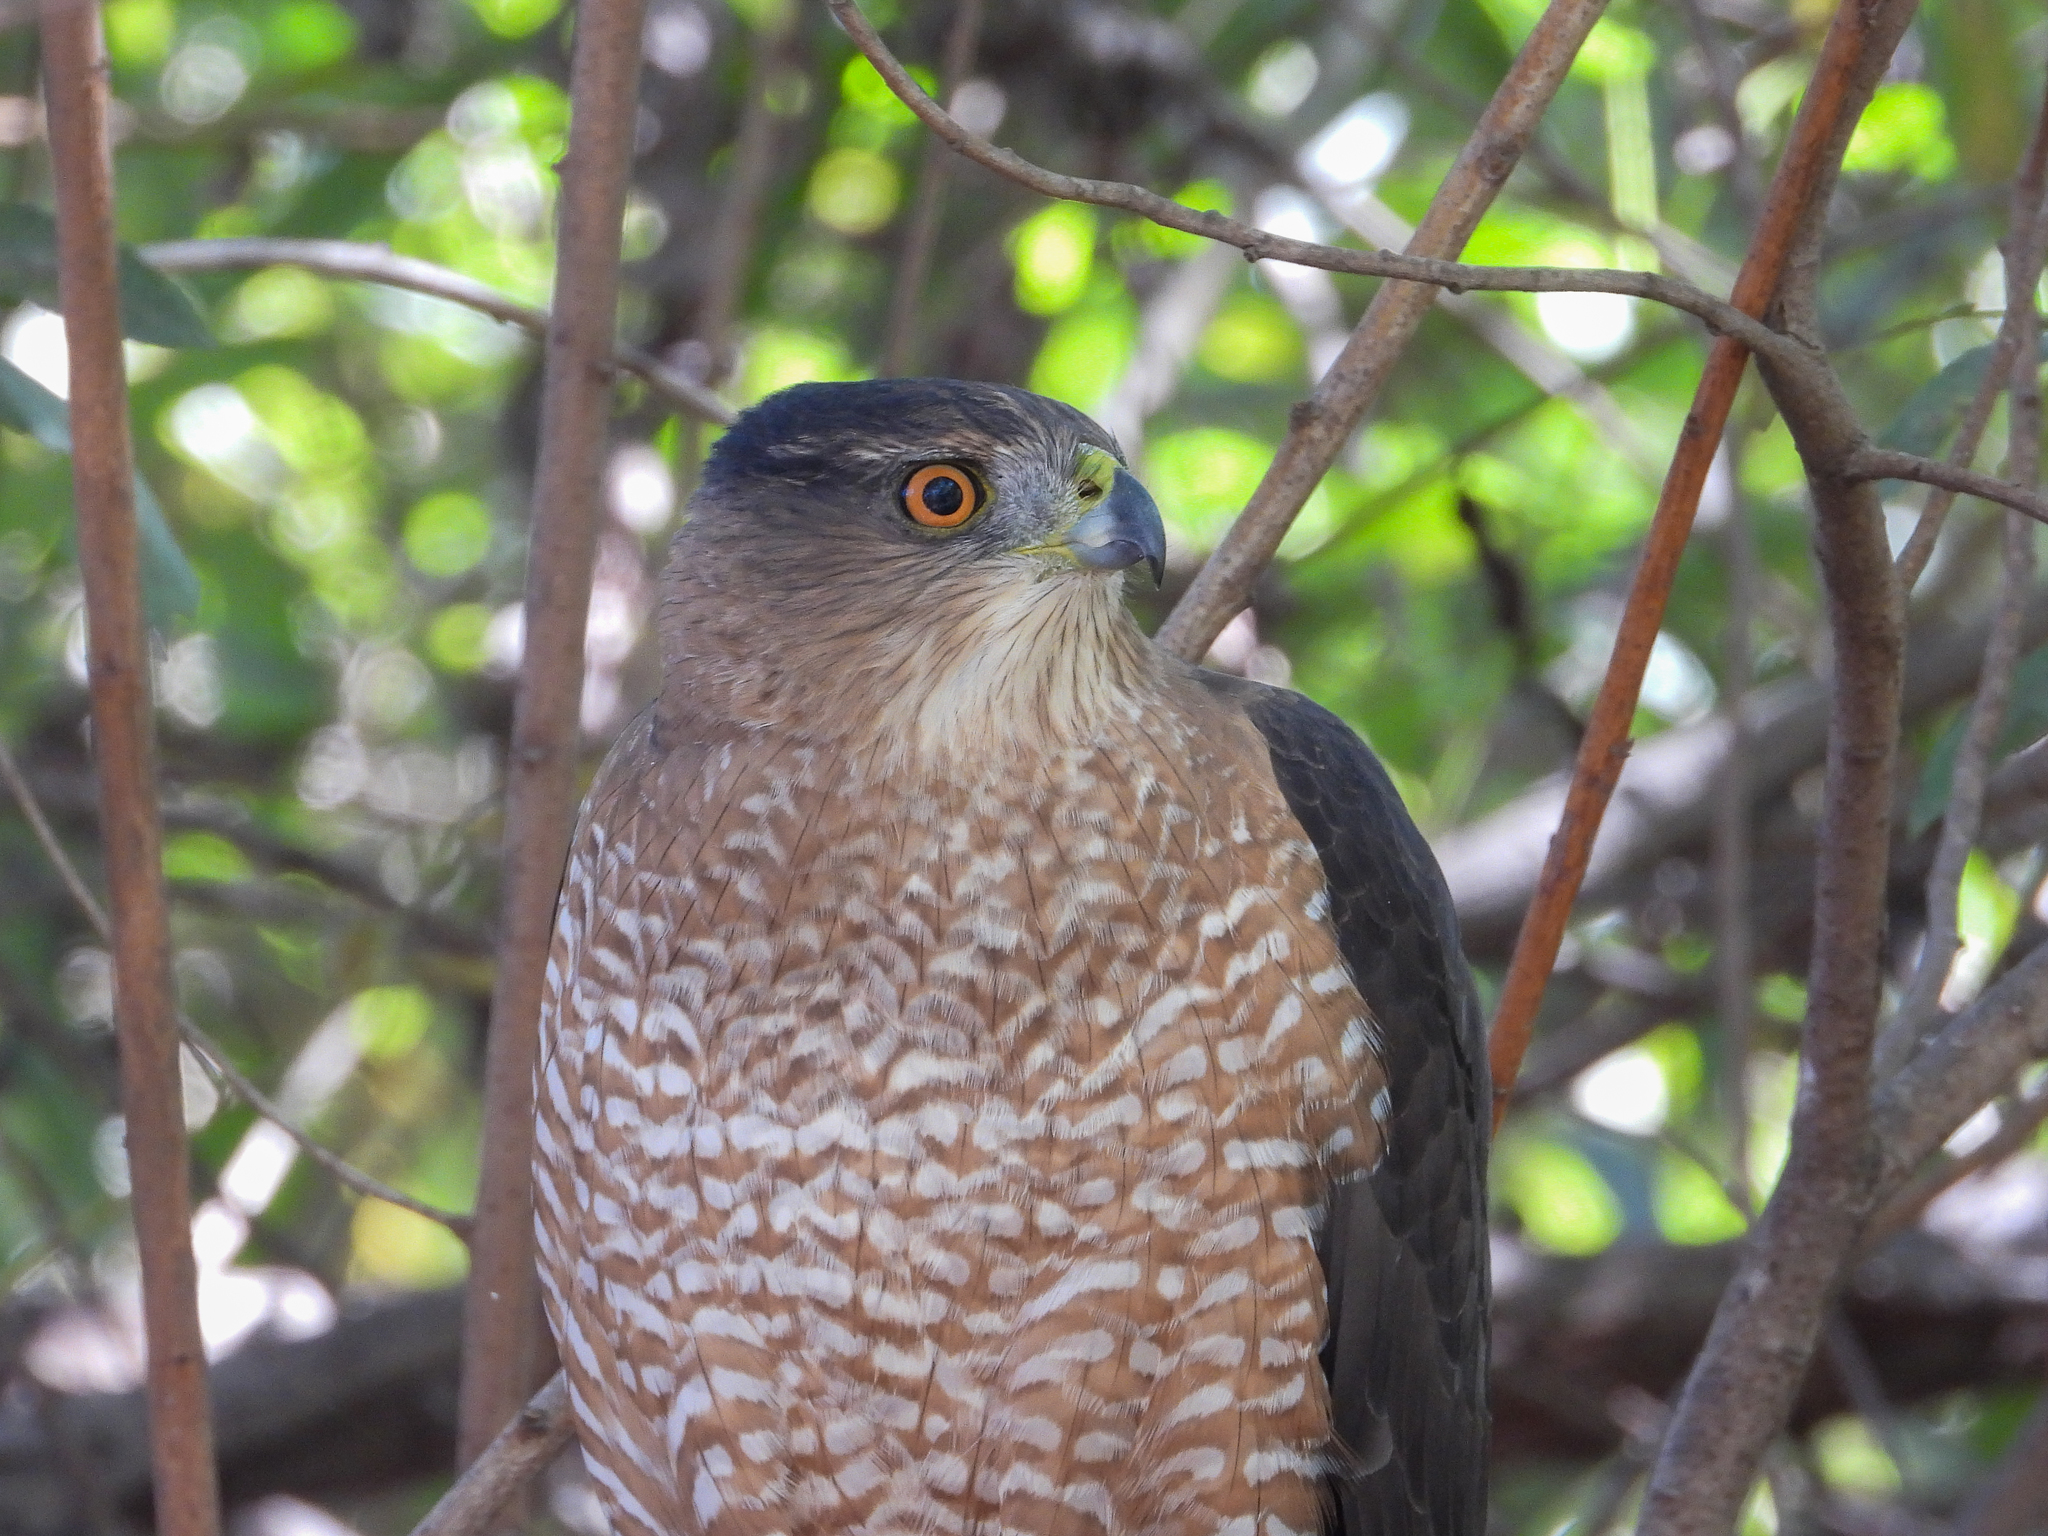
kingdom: Animalia
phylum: Chordata
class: Aves
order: Accipitriformes
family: Accipitridae
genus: Accipiter
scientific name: Accipiter cooperii
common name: Cooper's hawk
